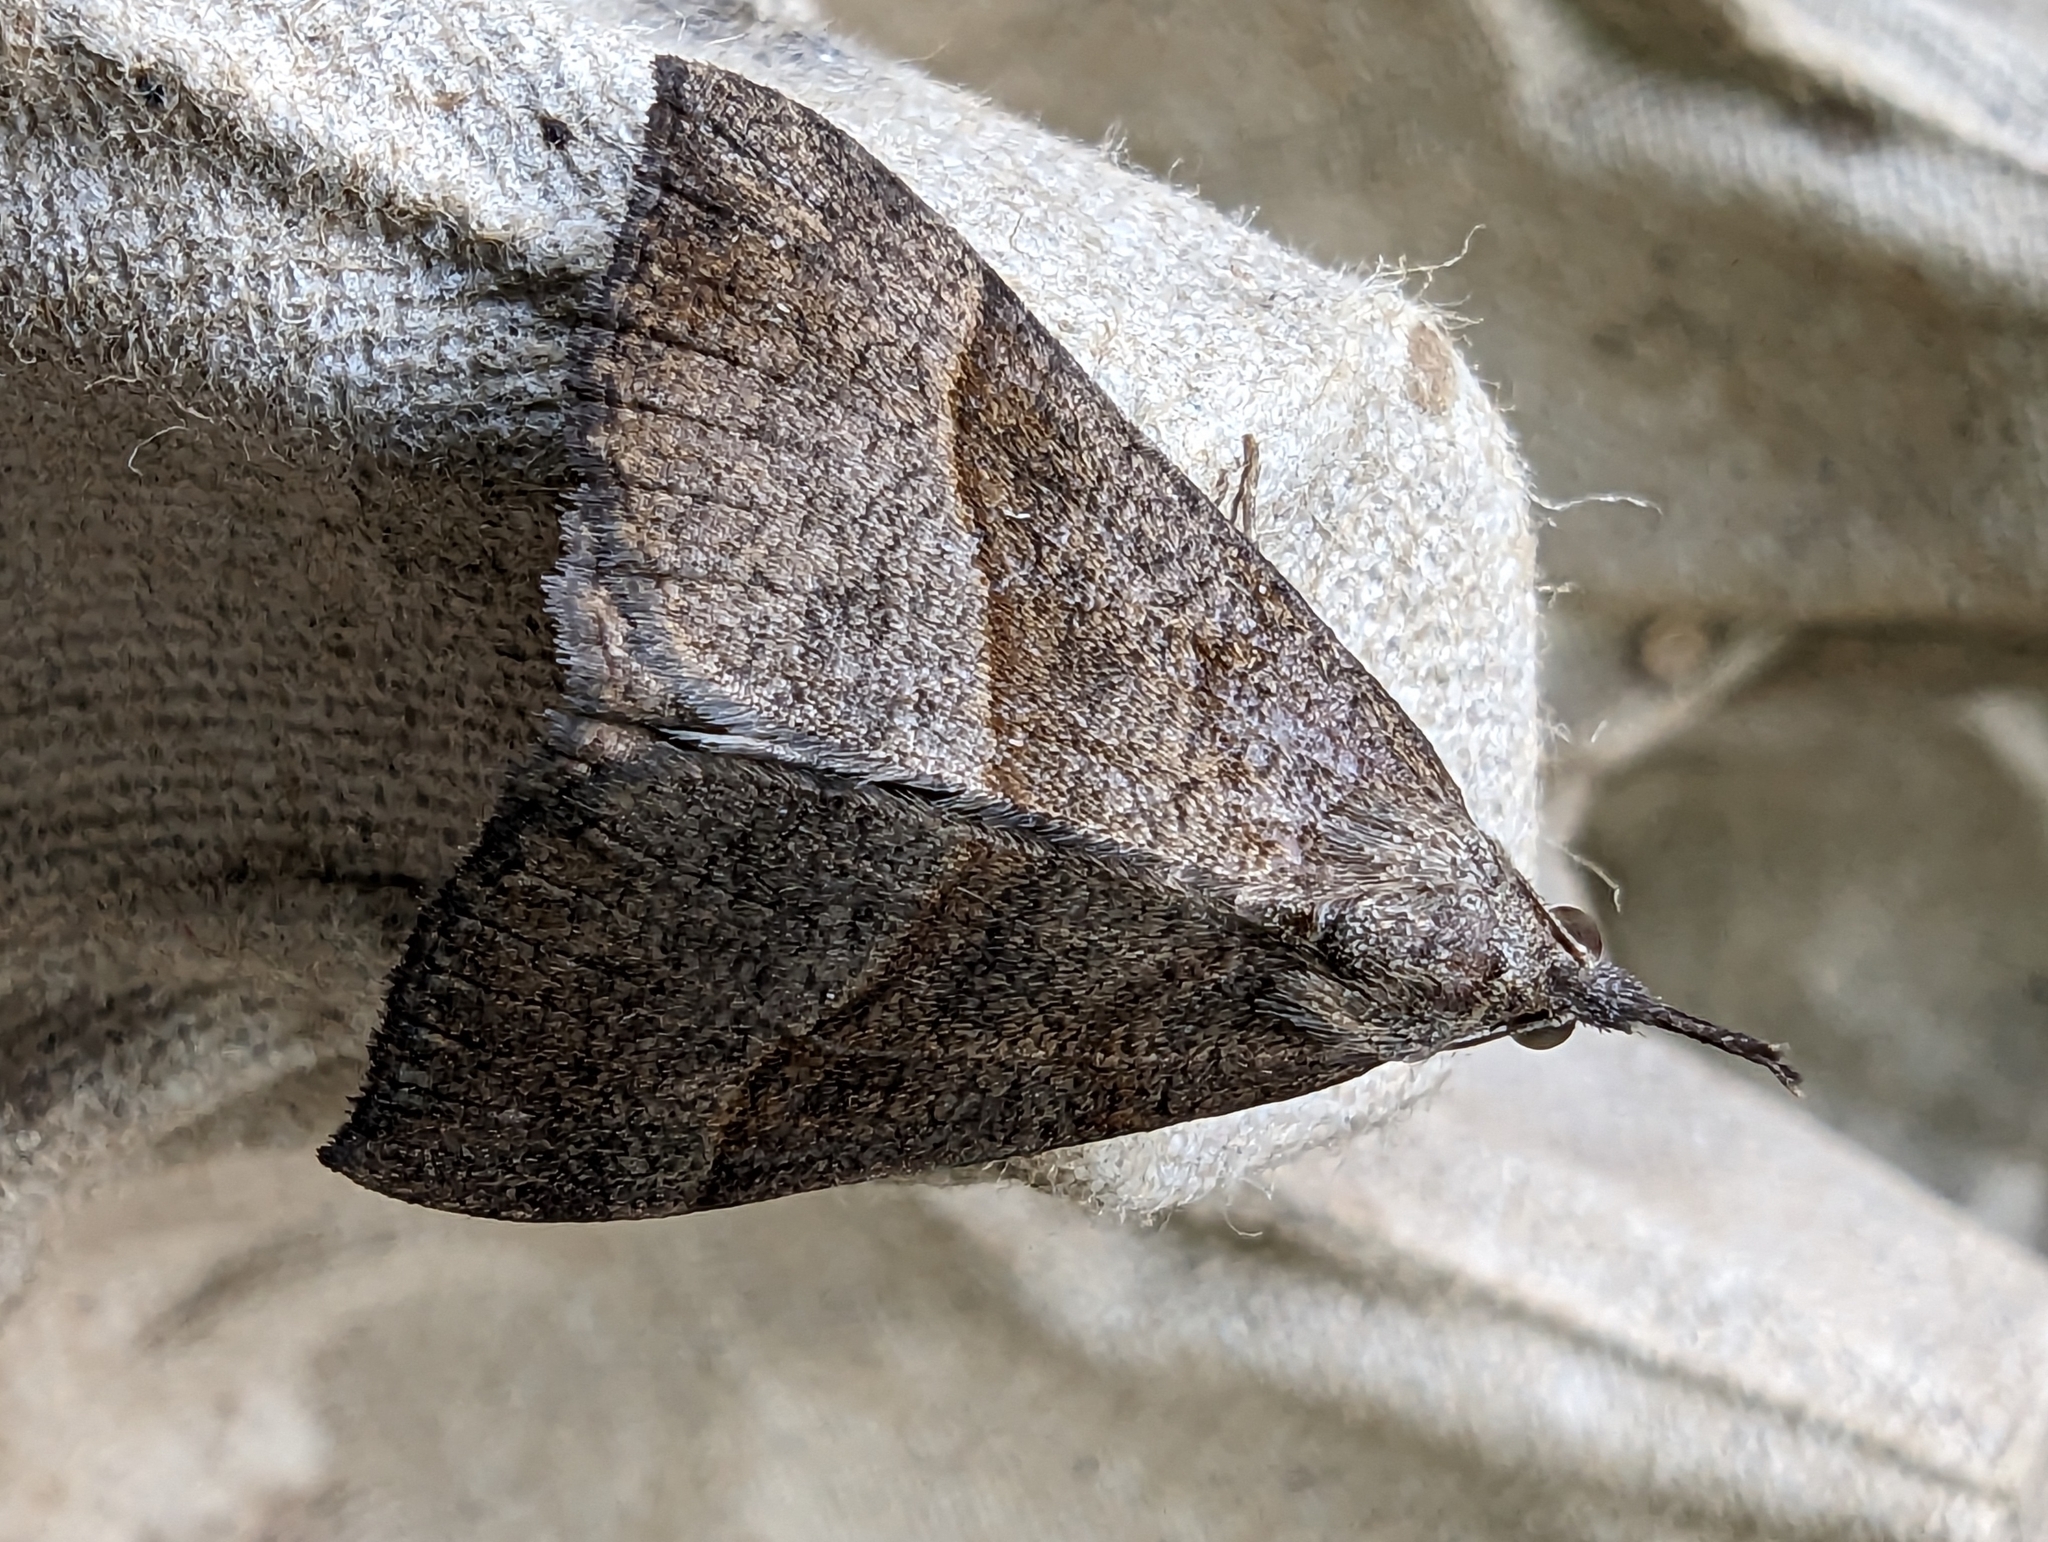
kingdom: Animalia
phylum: Arthropoda
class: Insecta
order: Lepidoptera
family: Erebidae
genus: Hypena
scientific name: Hypena proboscidalis
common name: Snout
